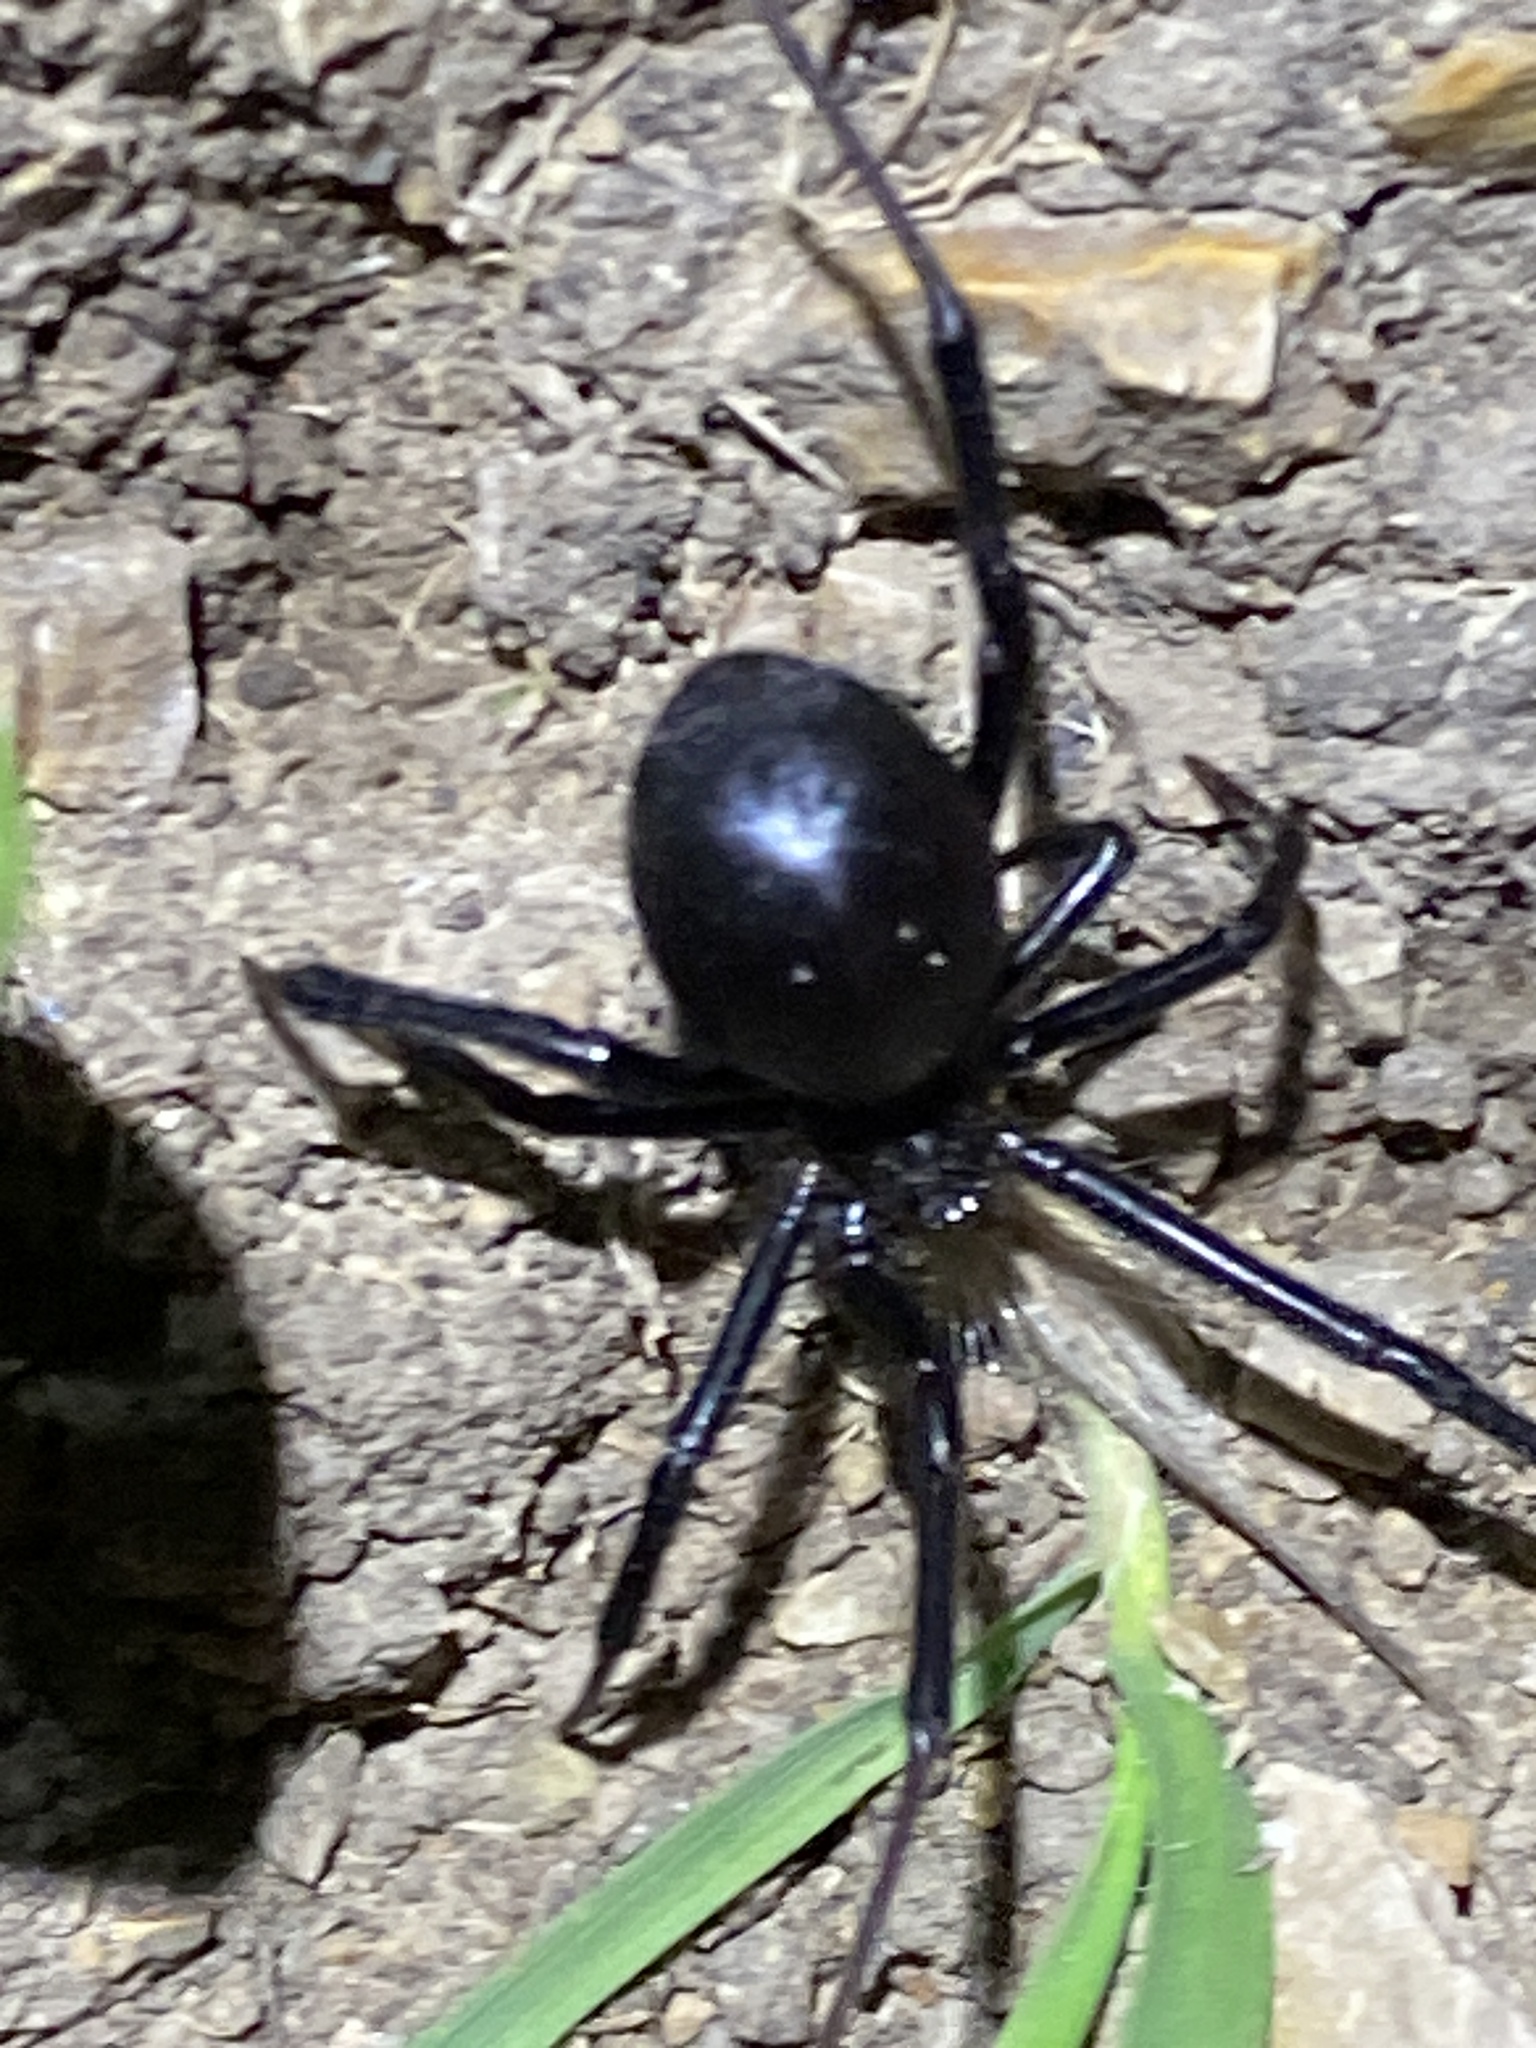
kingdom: Animalia
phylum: Arthropoda
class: Arachnida
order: Araneae
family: Theridiidae
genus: Latrodectus
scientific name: Latrodectus hesperus
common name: Western black widow
